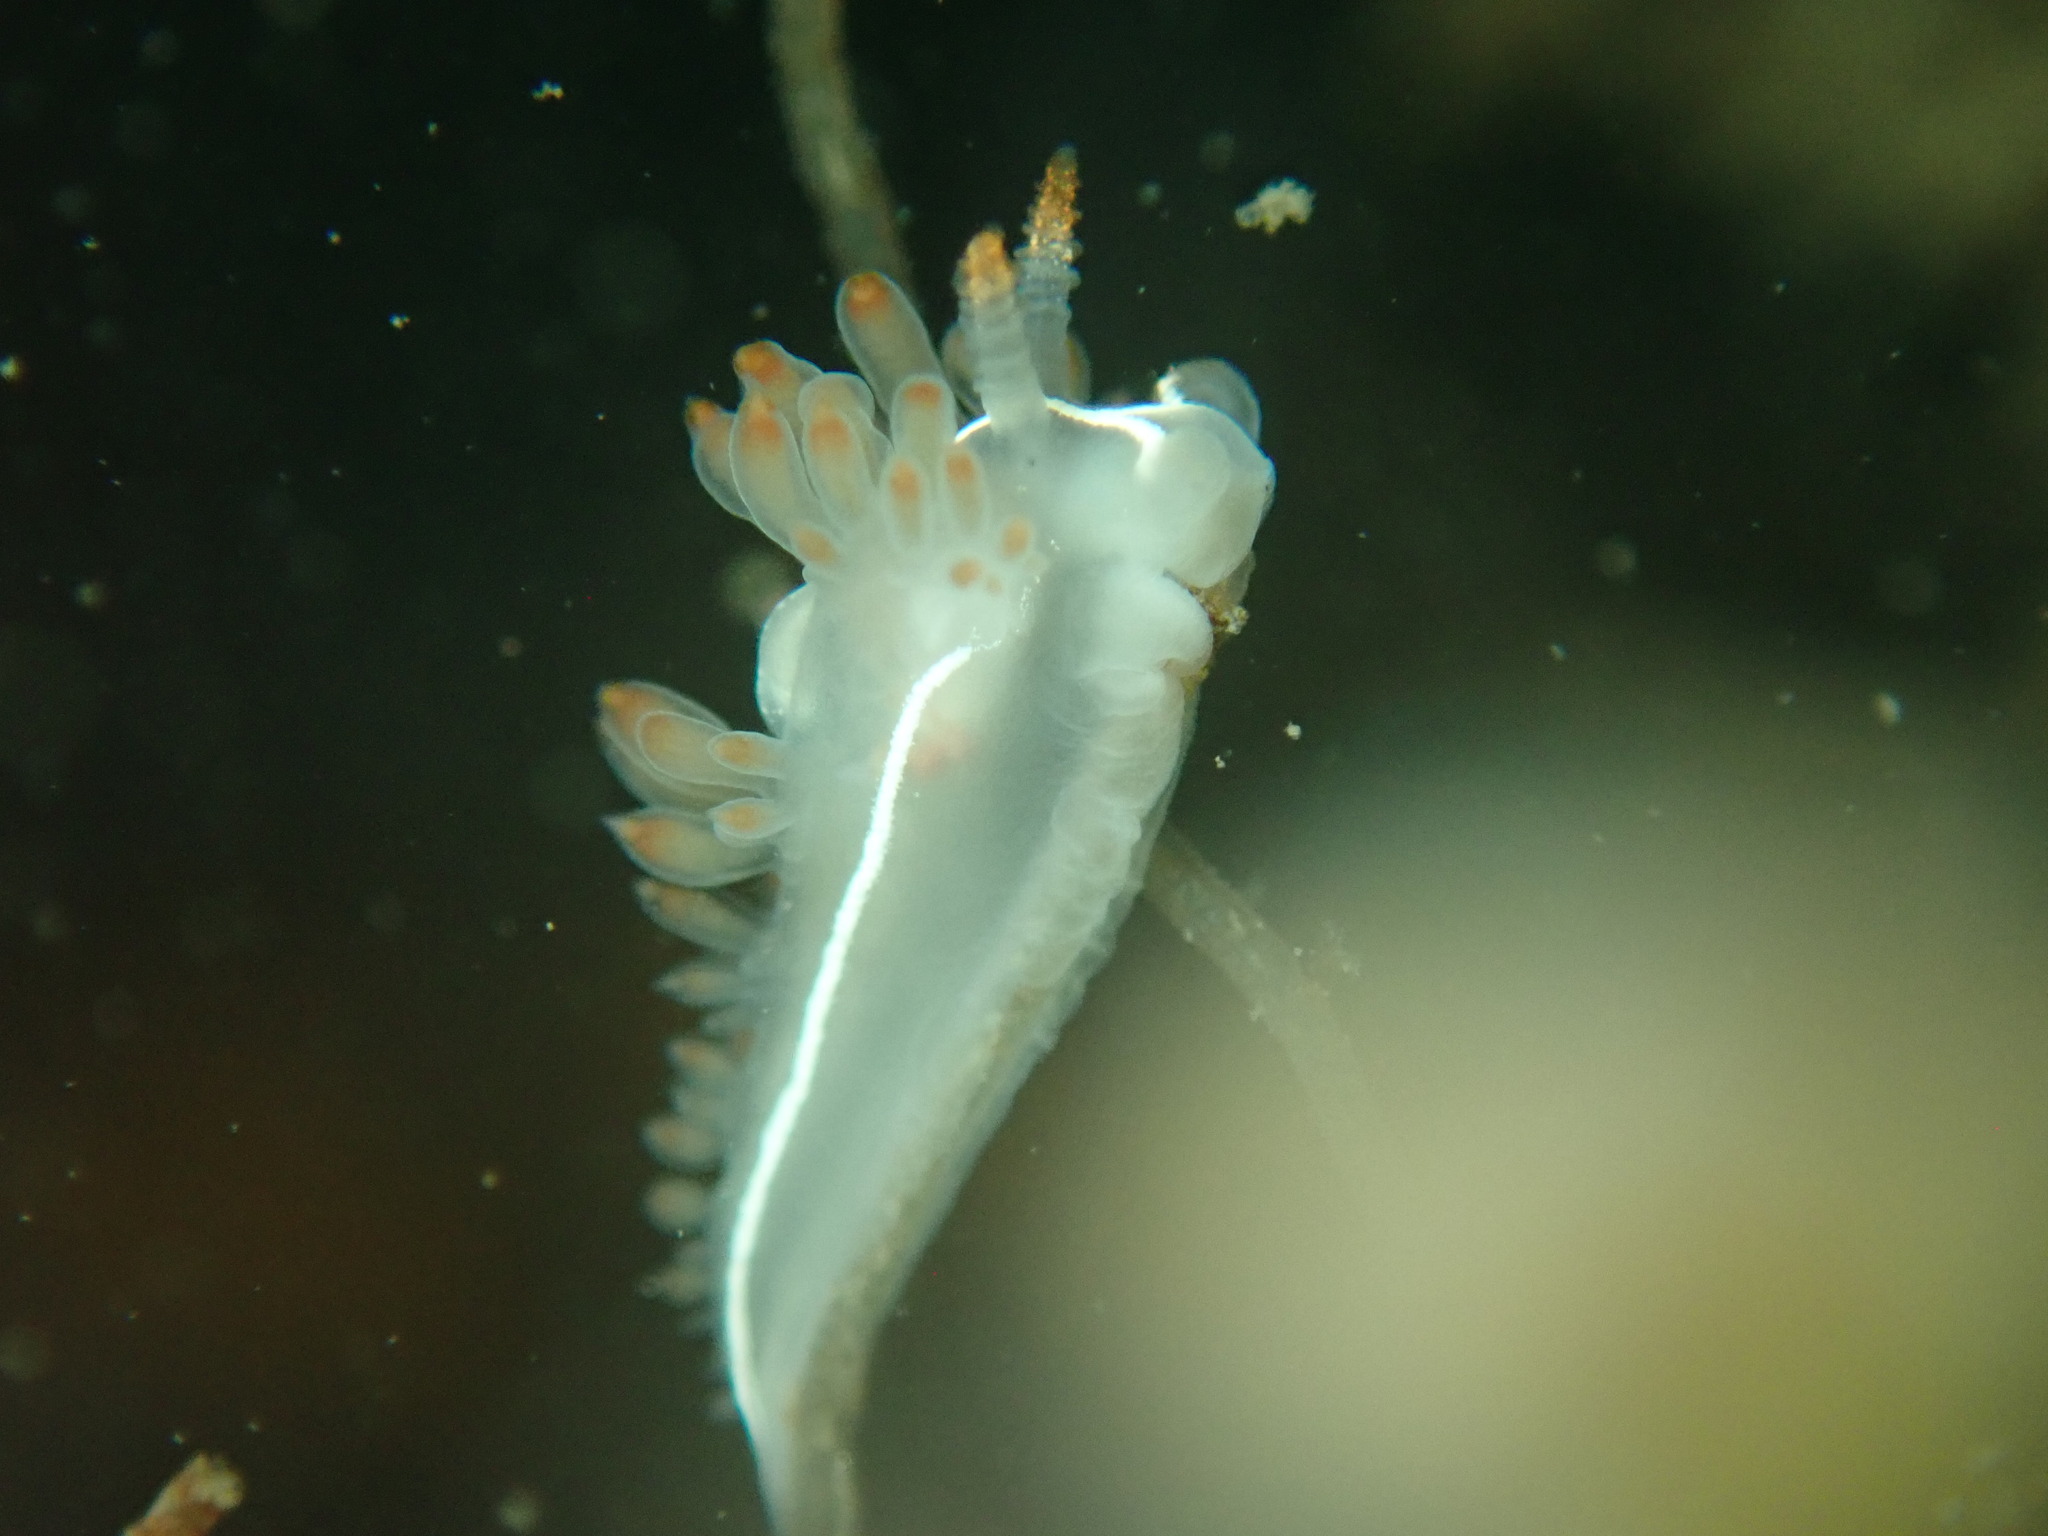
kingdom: Animalia
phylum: Mollusca
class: Gastropoda
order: Nudibranchia
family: Coryphellidae
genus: Coryphella
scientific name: Coryphella trilineata
